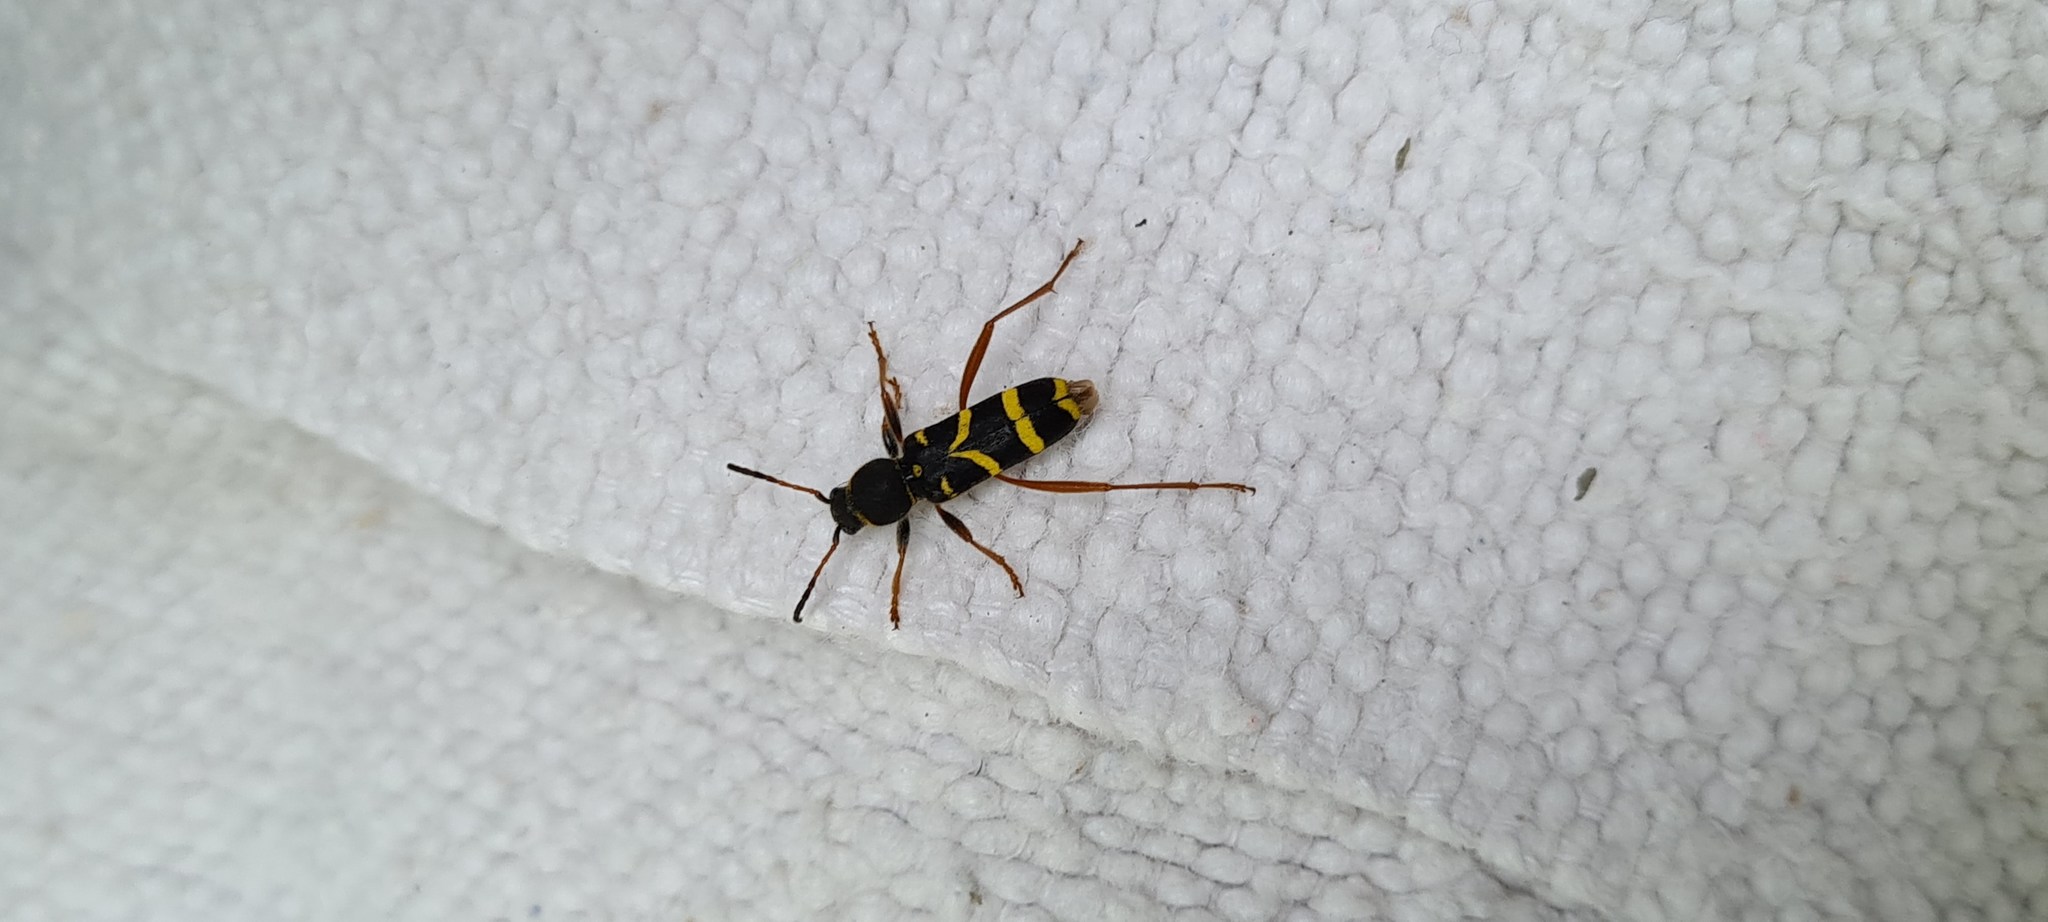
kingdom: Animalia
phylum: Arthropoda
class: Insecta
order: Coleoptera
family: Cerambycidae
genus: Clytus
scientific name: Clytus arietis
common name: Wasp beetle
